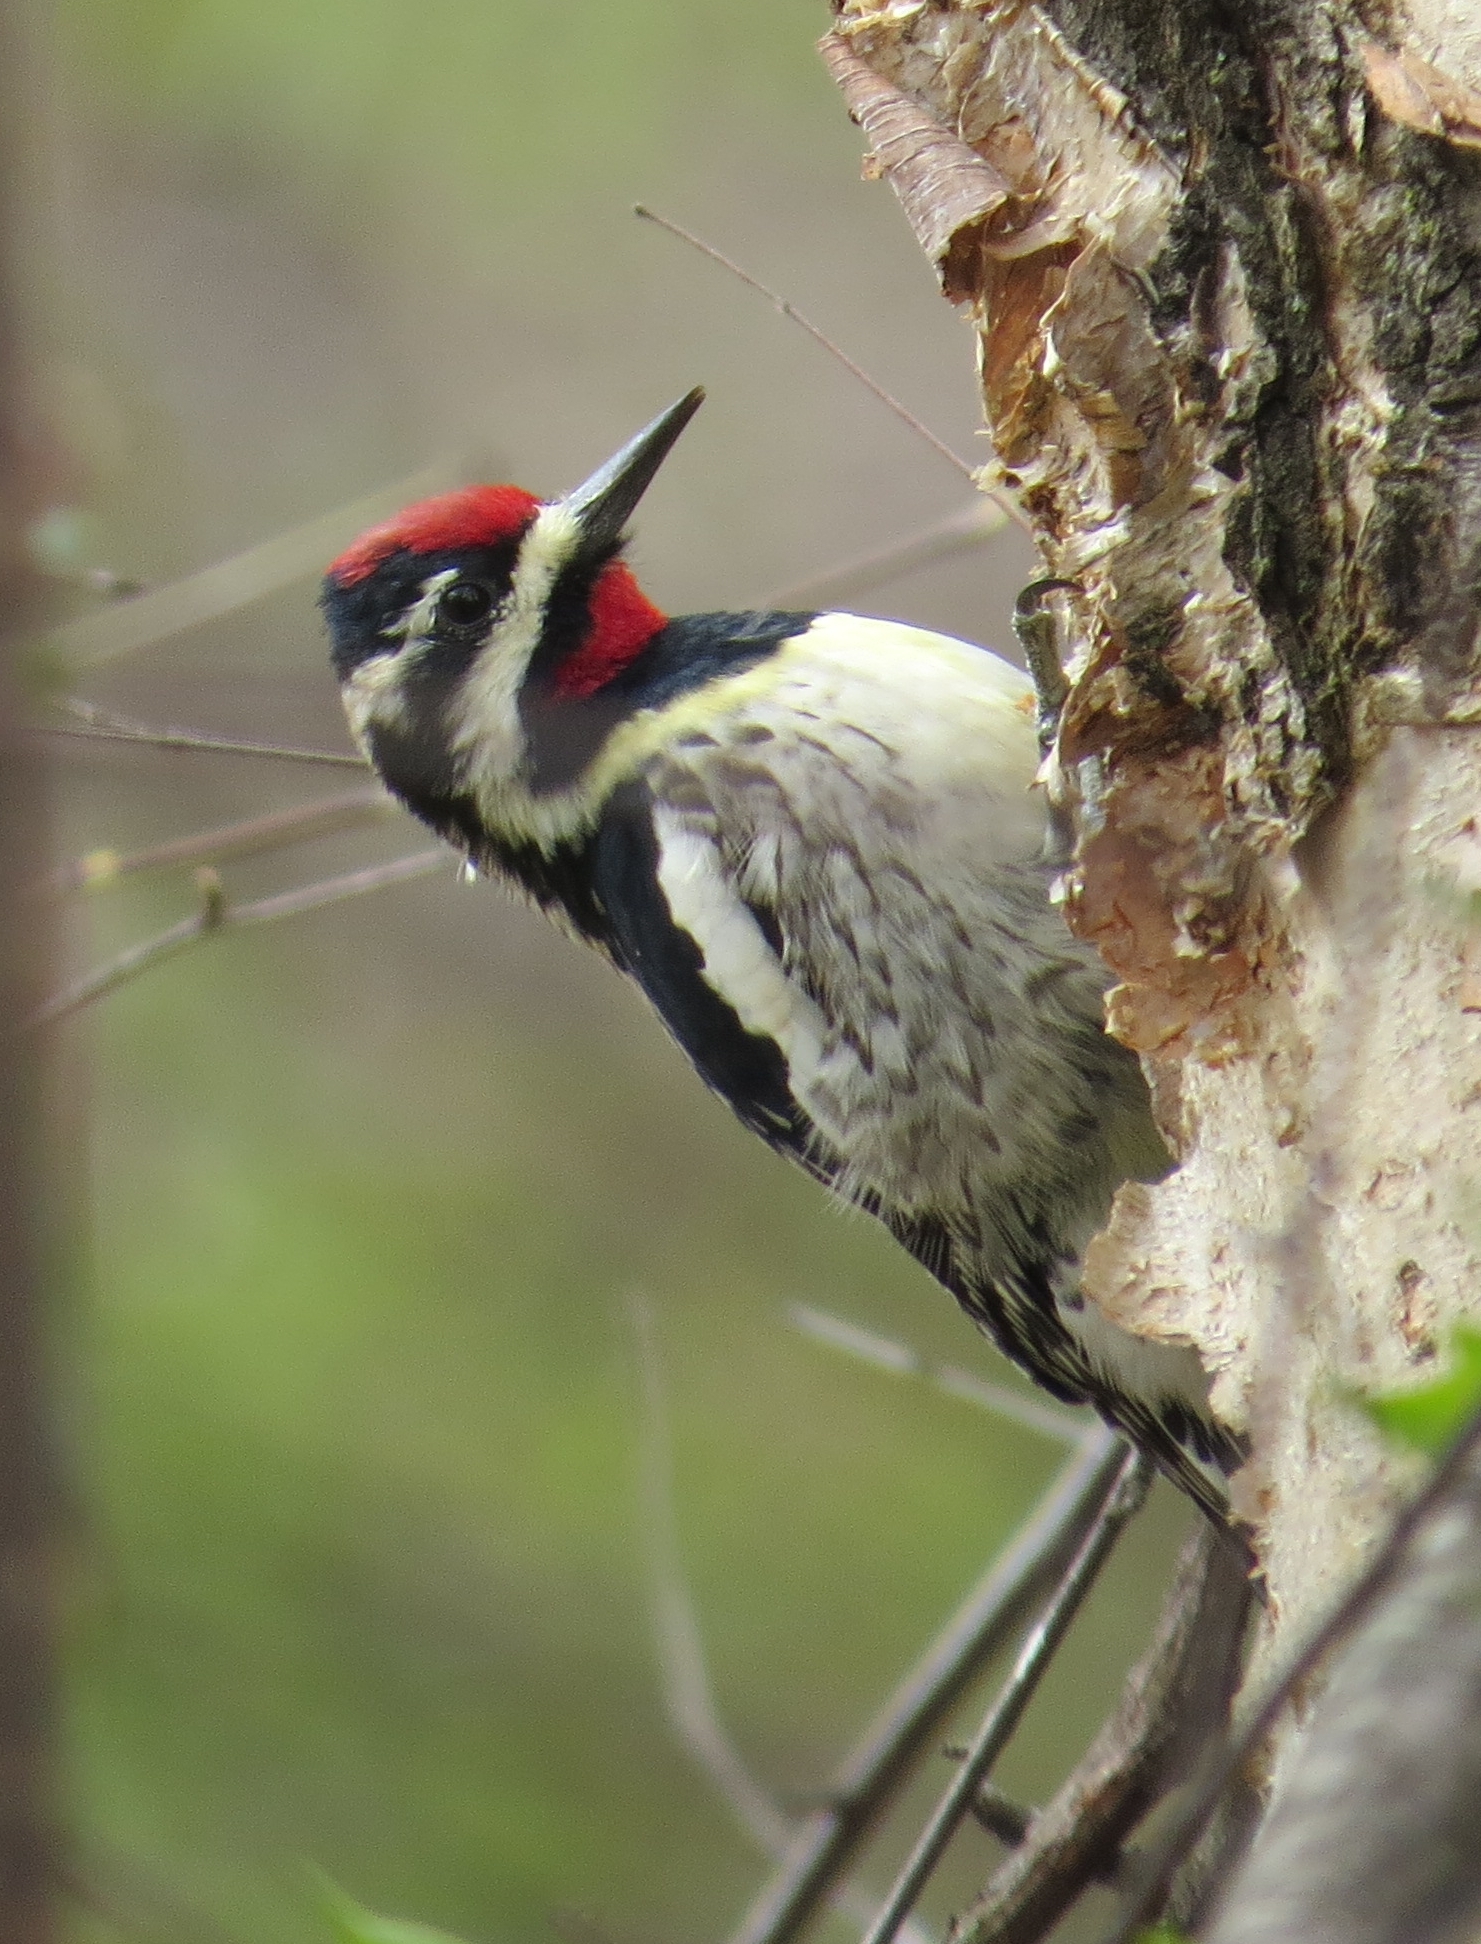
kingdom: Animalia
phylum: Chordata
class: Aves
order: Piciformes
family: Picidae
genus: Sphyrapicus
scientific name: Sphyrapicus varius
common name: Yellow-bellied sapsucker
